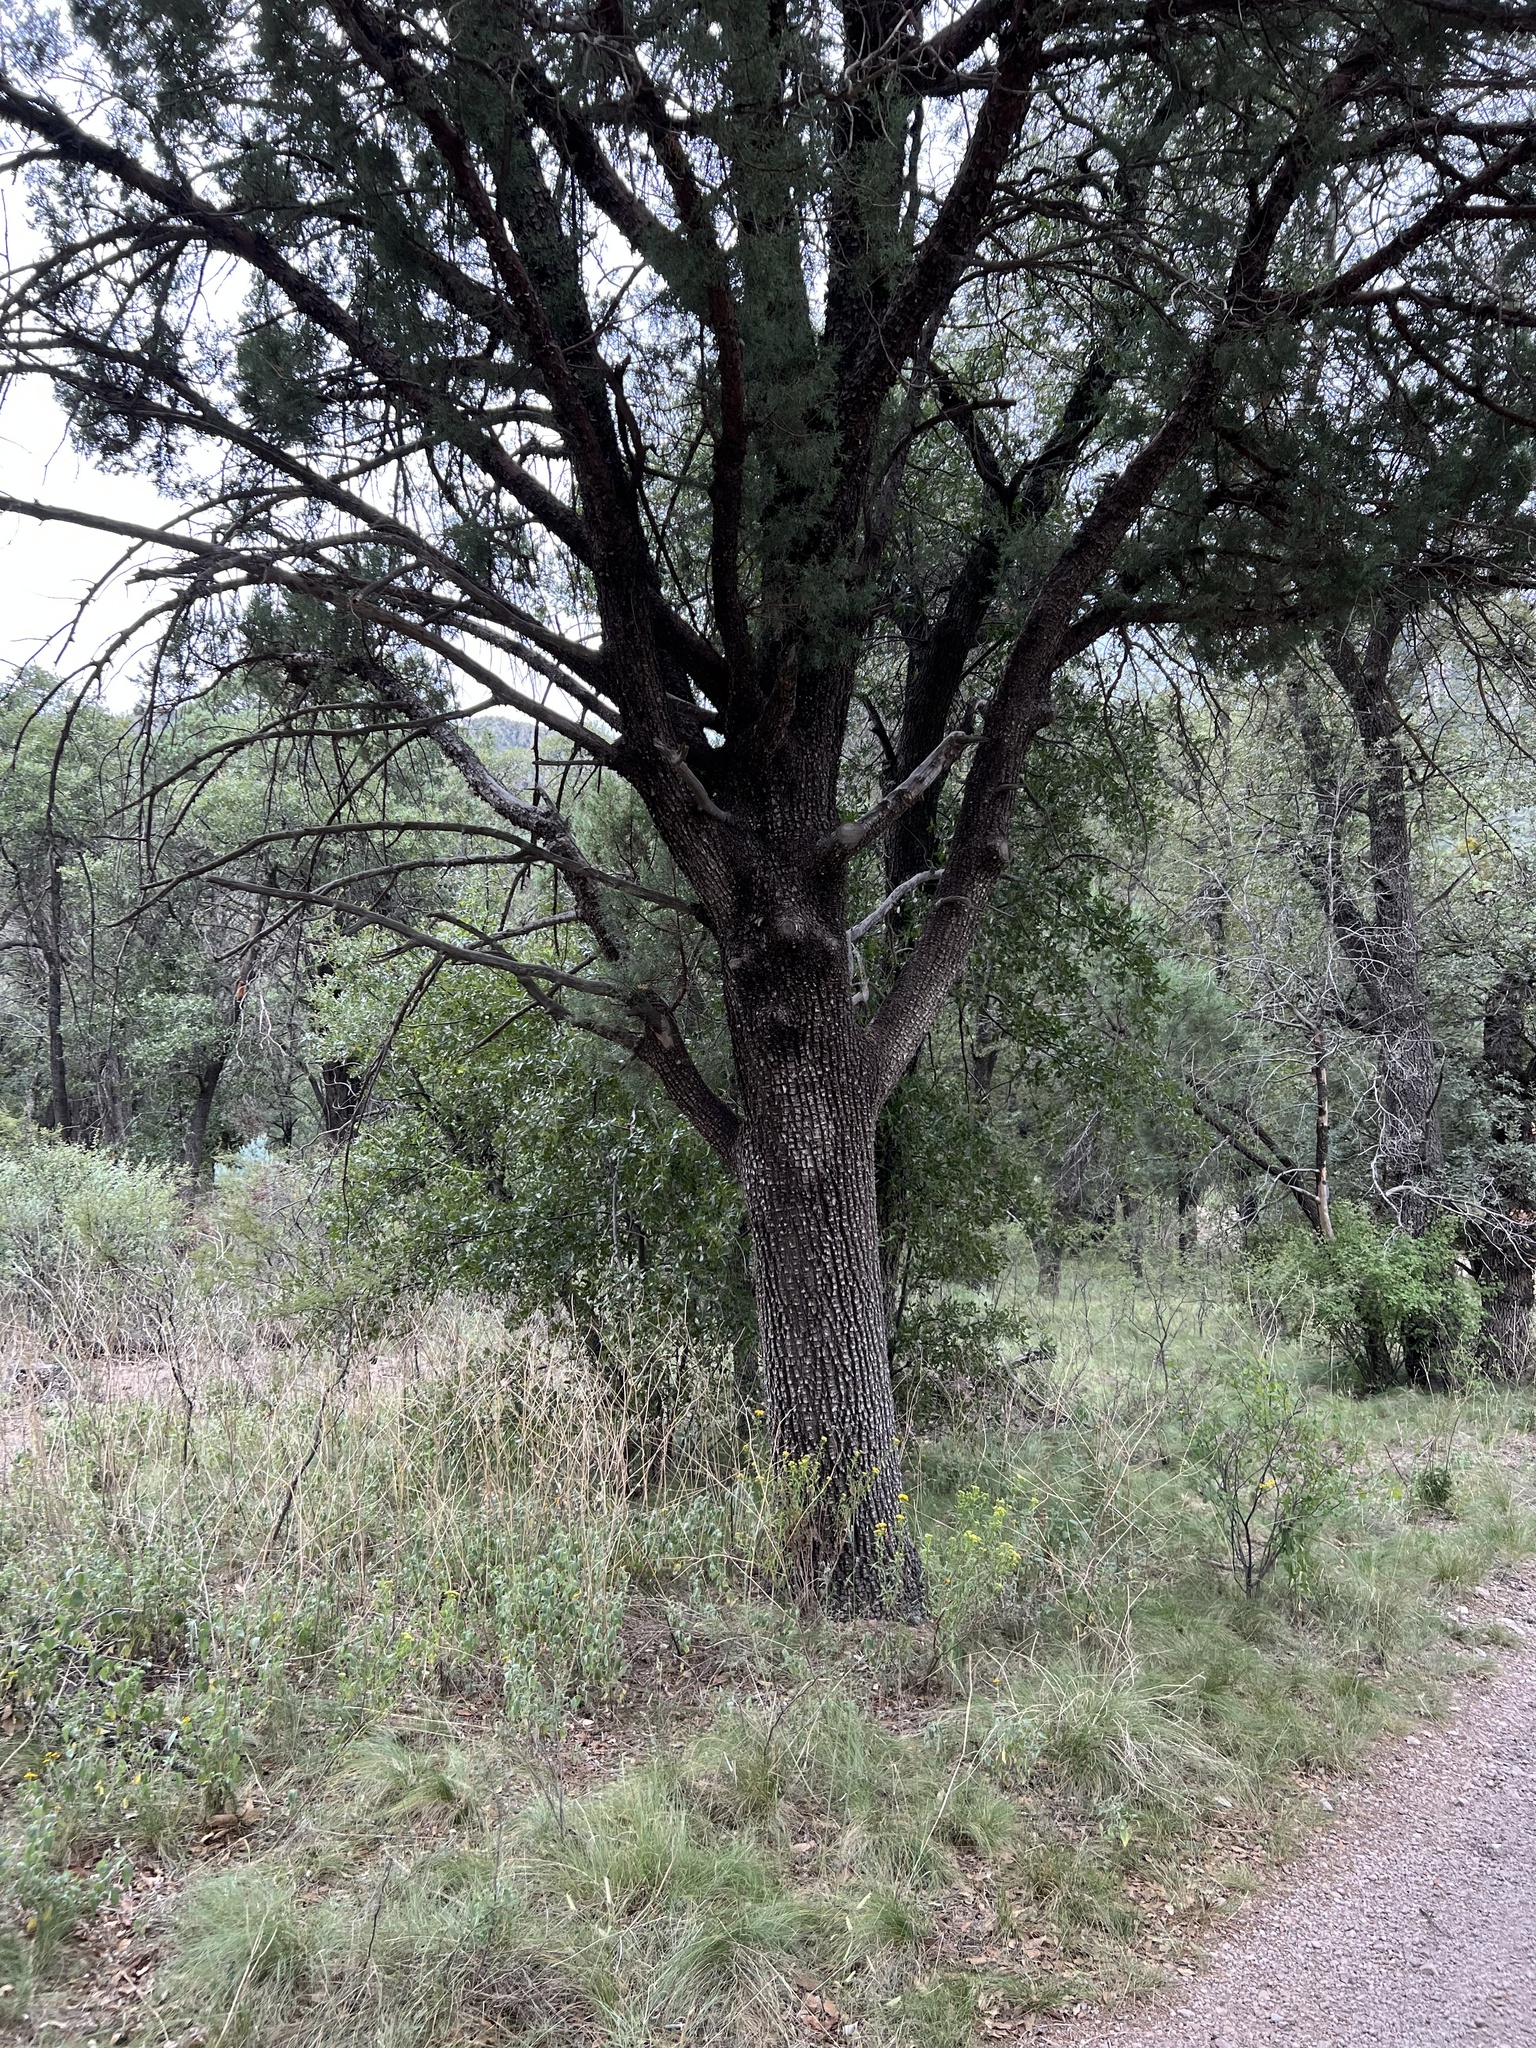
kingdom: Plantae
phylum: Tracheophyta
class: Pinopsida
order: Pinales
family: Cupressaceae
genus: Juniperus
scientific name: Juniperus deppeana
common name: Alligator juniper
